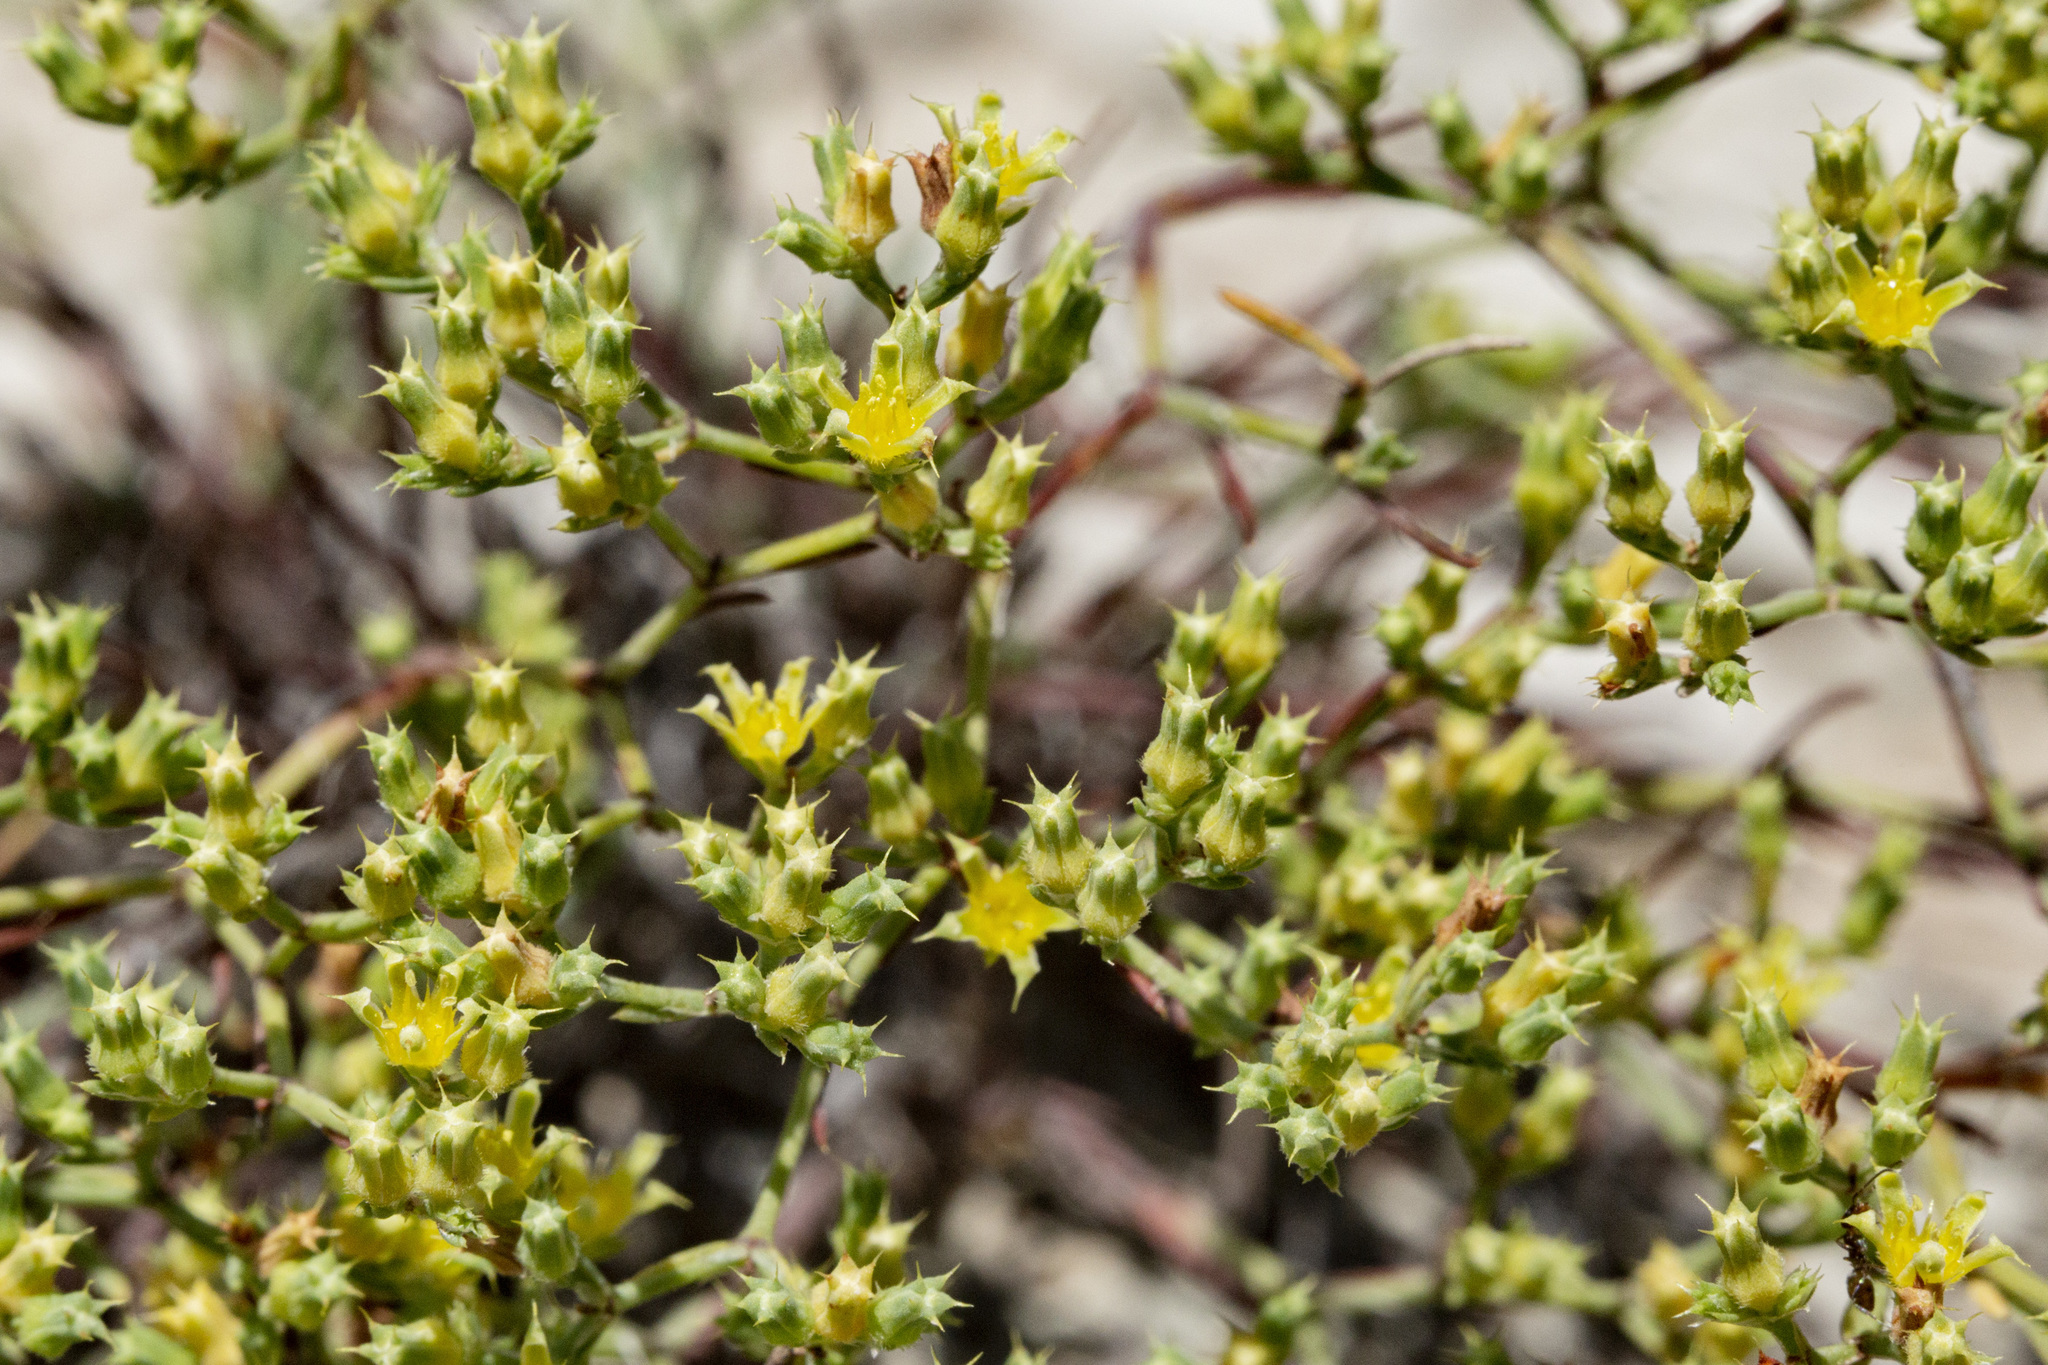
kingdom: Plantae
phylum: Tracheophyta
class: Magnoliopsida
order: Caryophyllales
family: Caryophyllaceae
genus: Paronychia
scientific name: Paronychia jamesii
